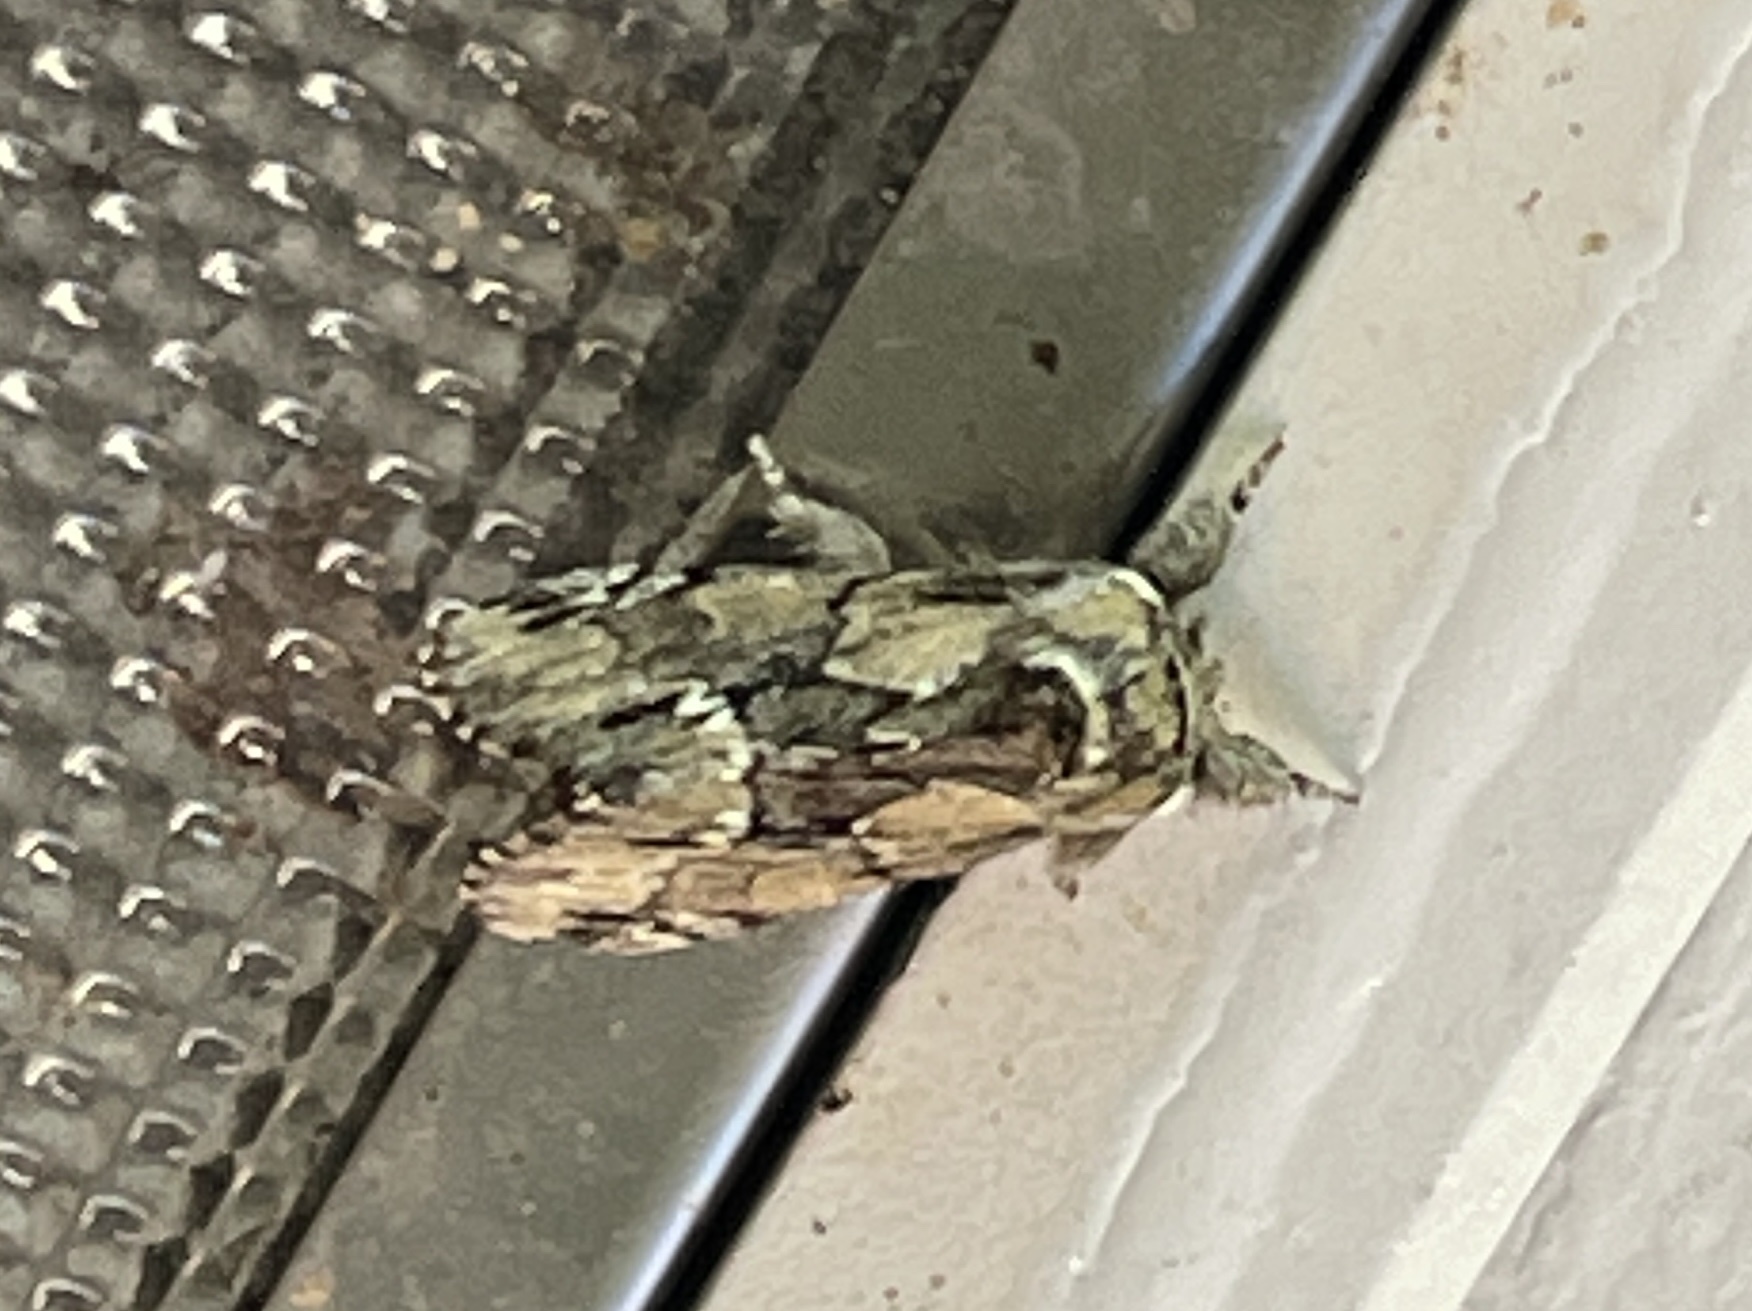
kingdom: Animalia
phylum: Arthropoda
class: Insecta
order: Lepidoptera
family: Notodontidae
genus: Paraeschra
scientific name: Paraeschra georgica
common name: Georgian prominent
